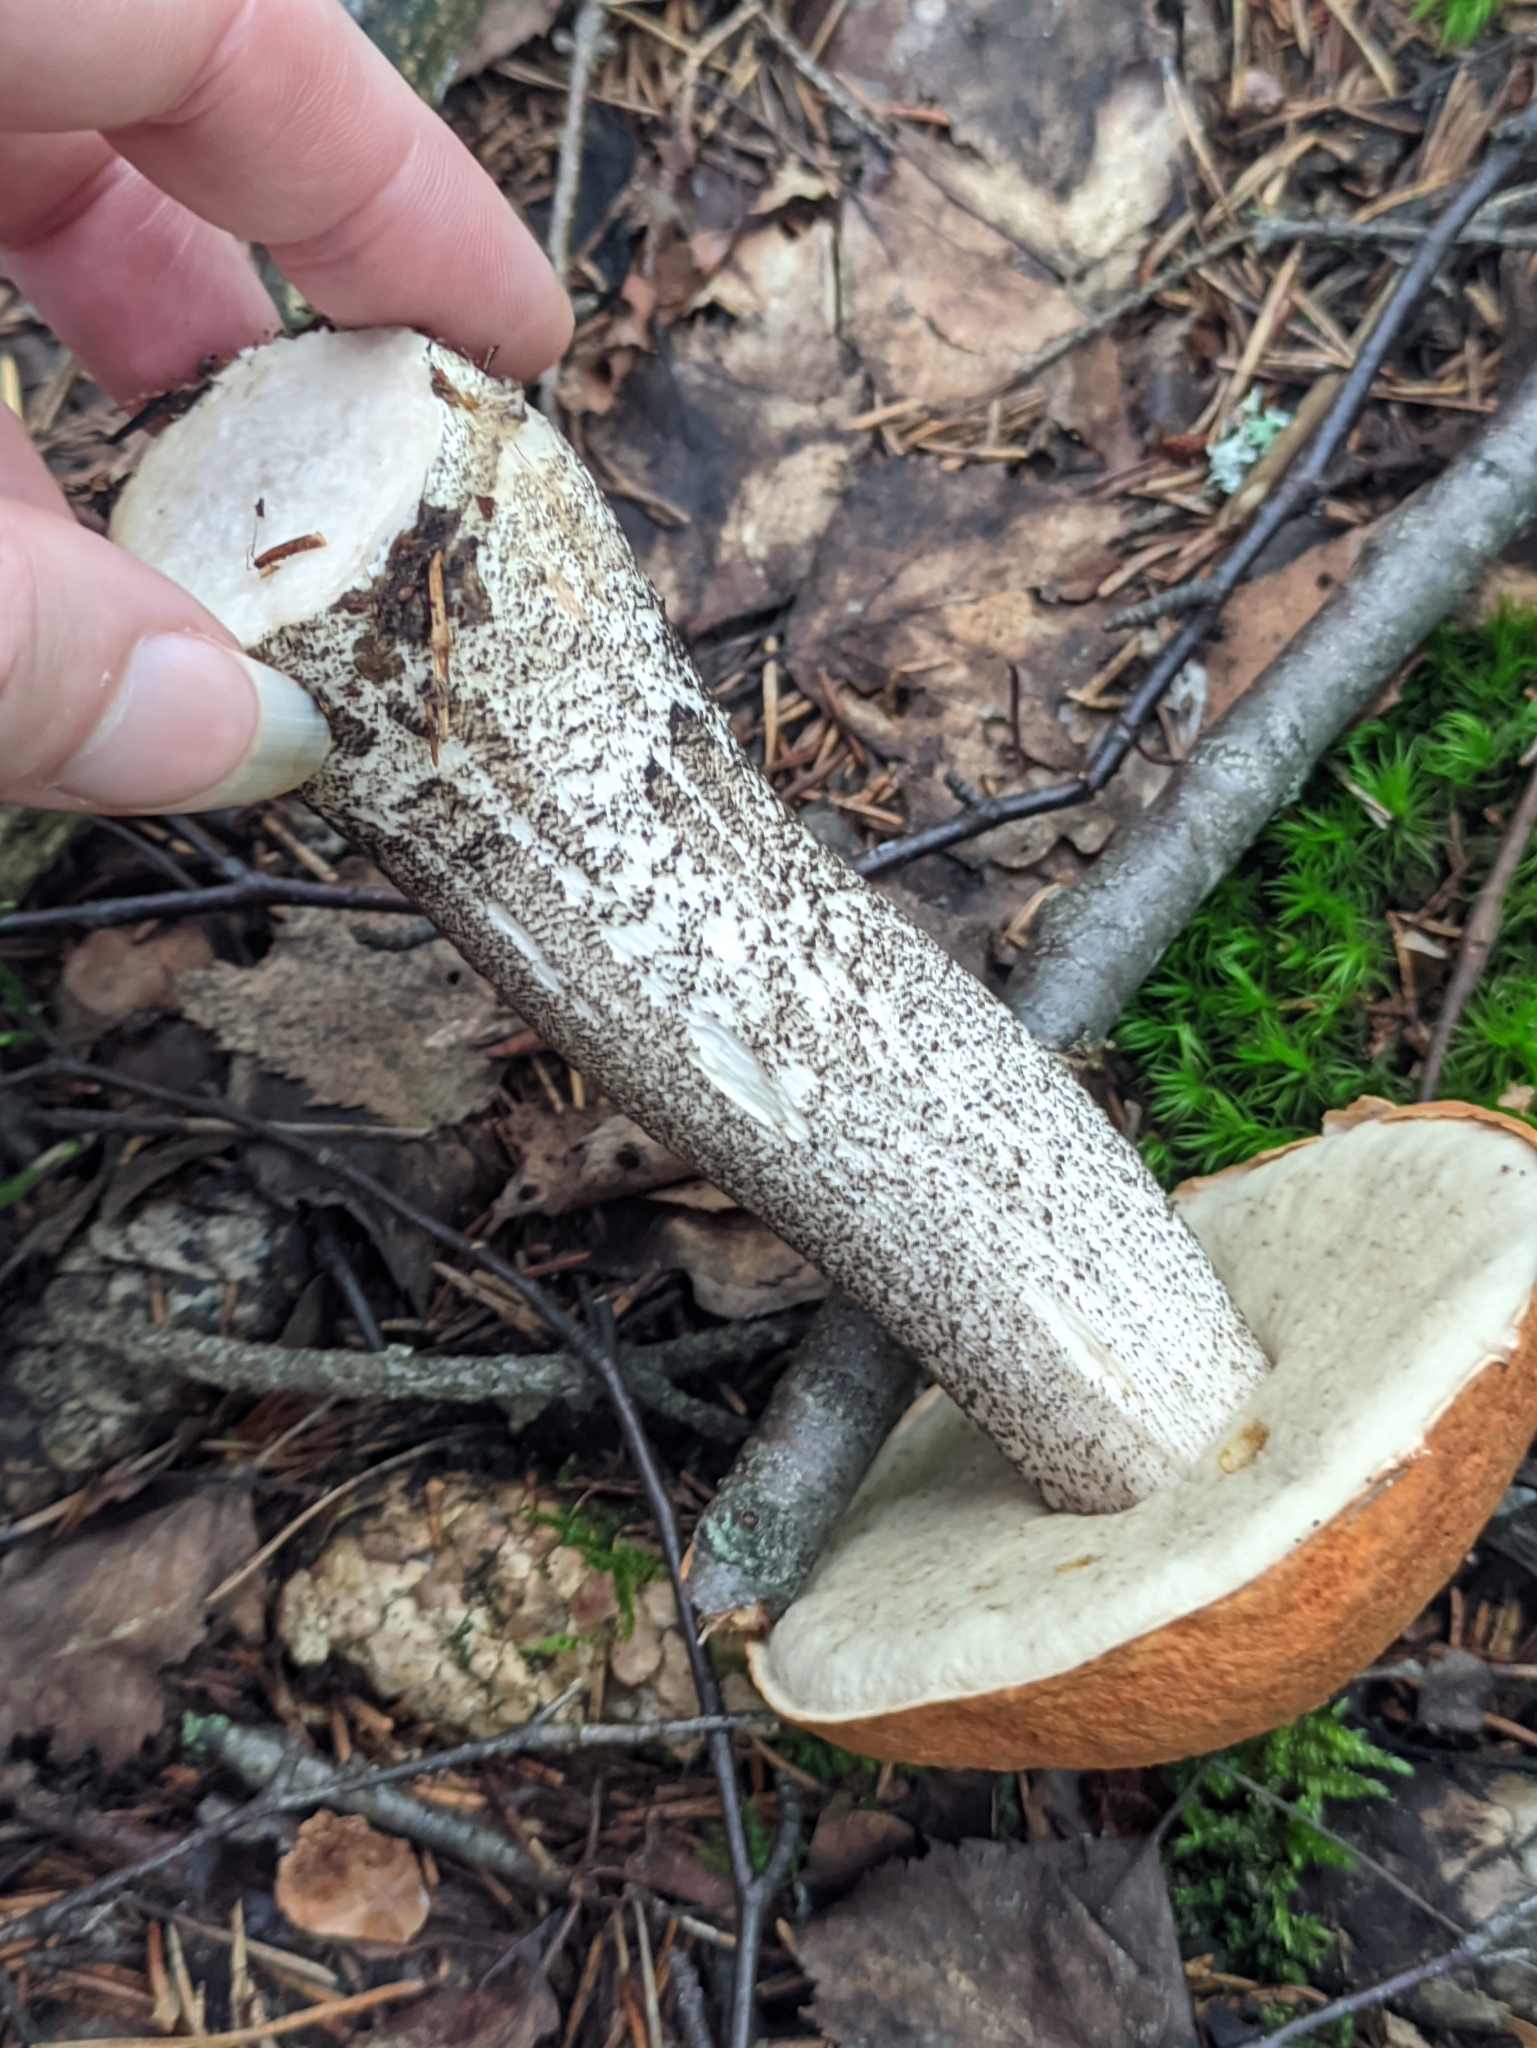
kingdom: Fungi
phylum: Basidiomycota
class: Agaricomycetes
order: Boletales
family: Boletaceae
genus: Leccinum
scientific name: Leccinum versipelle
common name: Orange birch bolete
